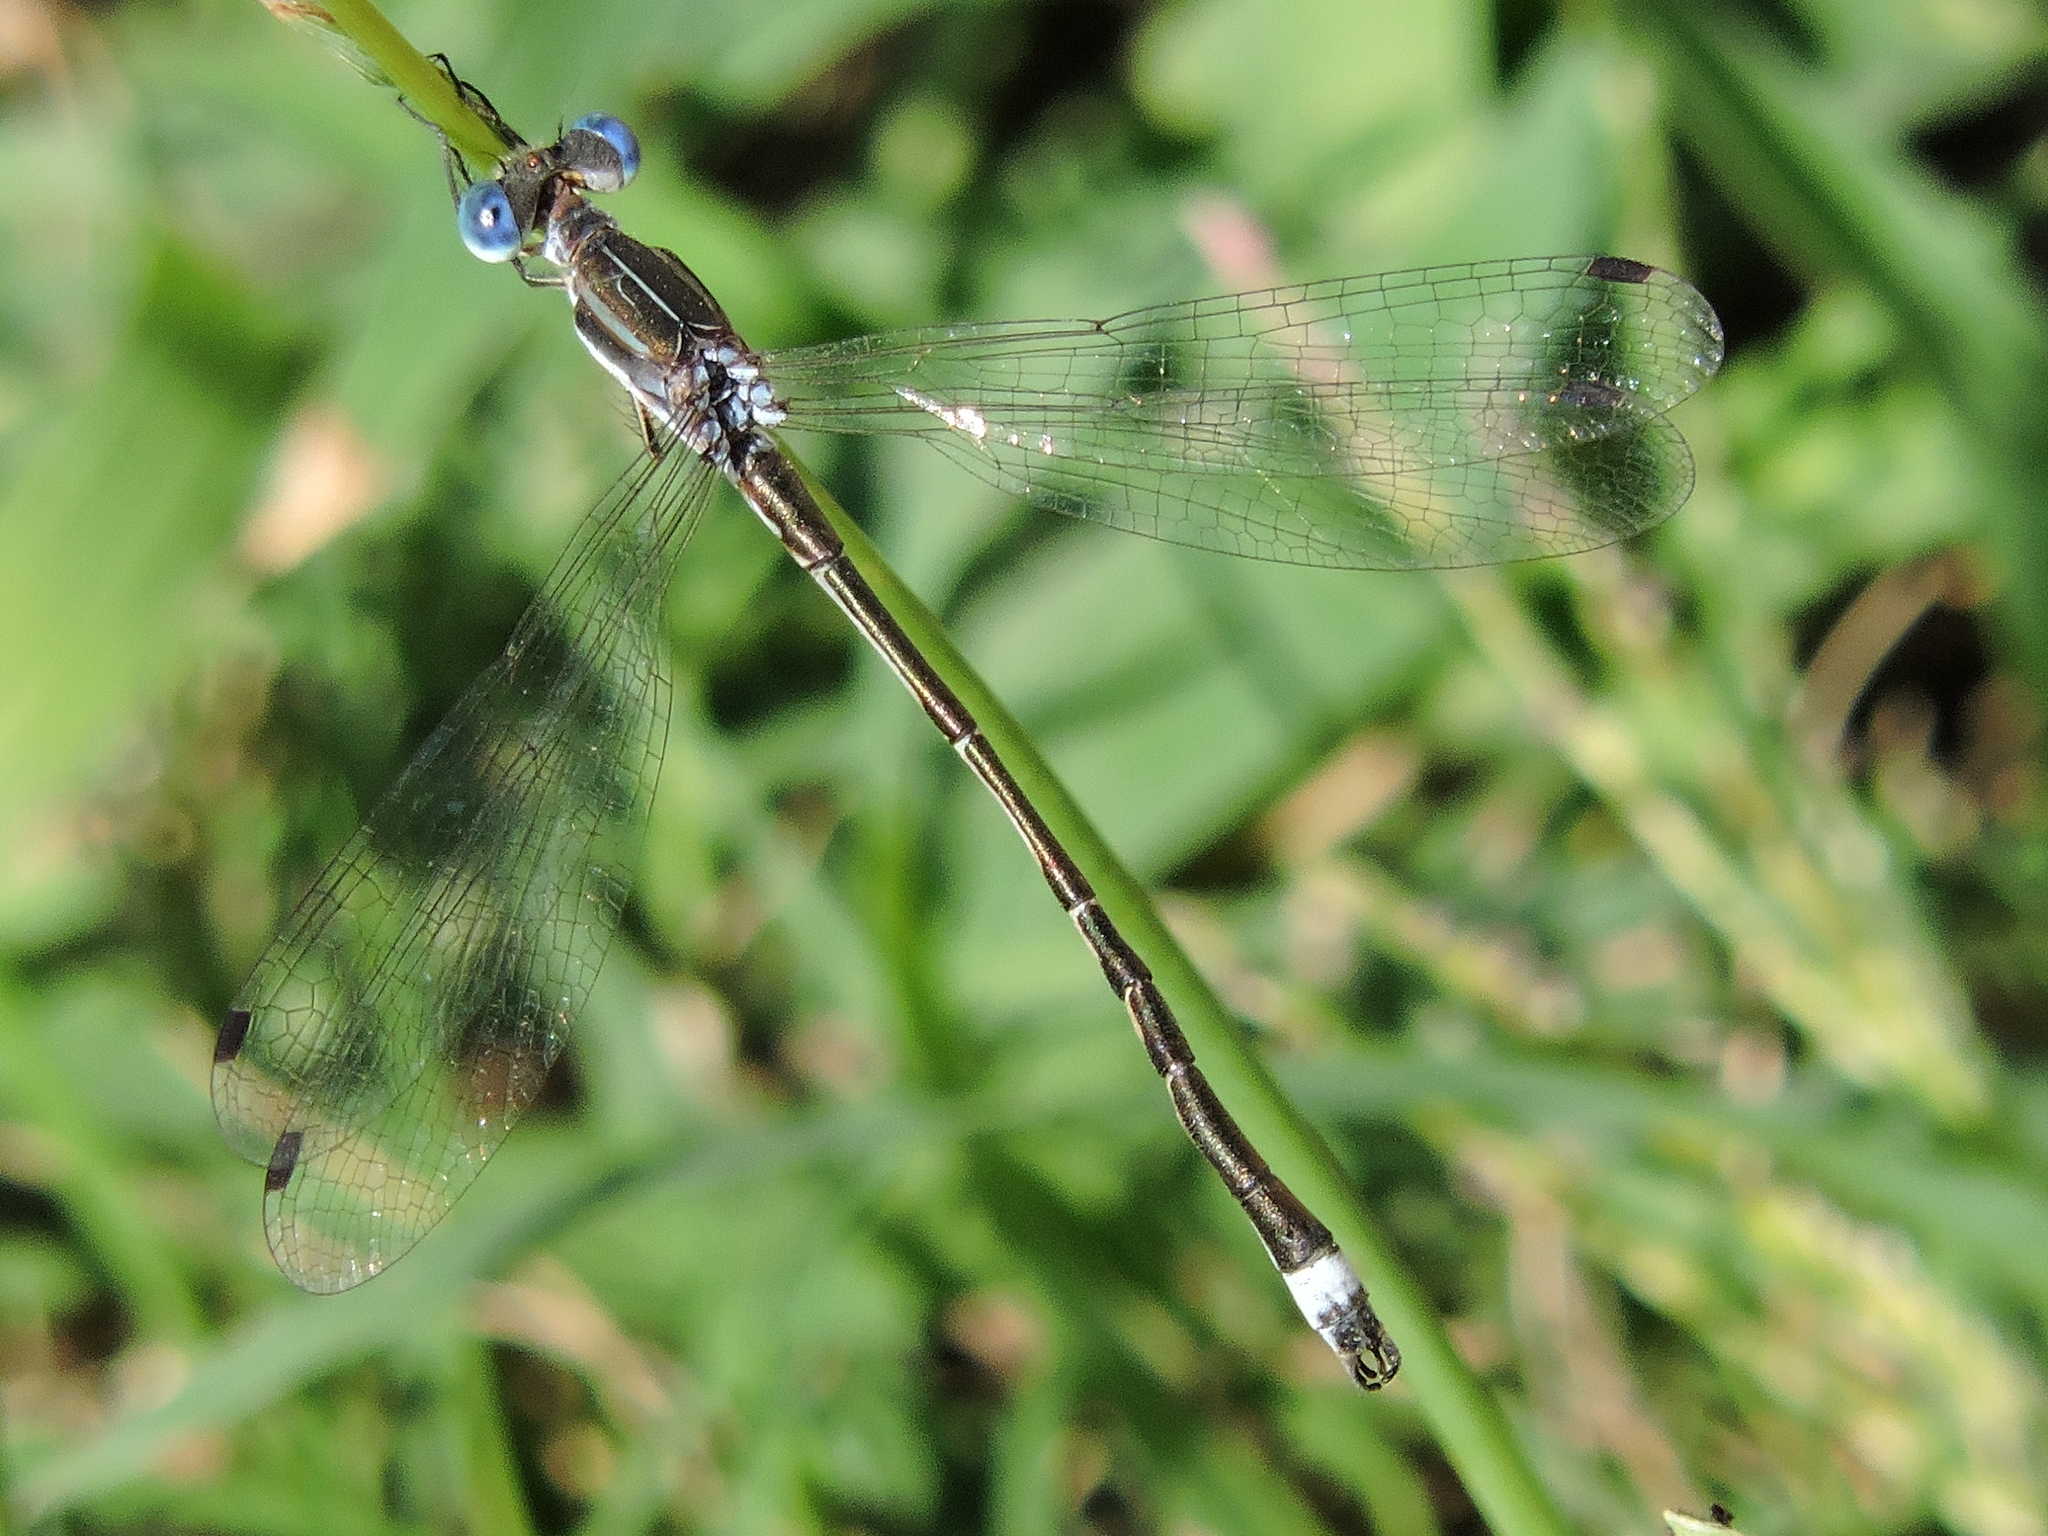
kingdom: Animalia
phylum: Arthropoda
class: Insecta
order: Odonata
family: Lestidae
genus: Lestes
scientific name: Lestes australis
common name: Southern spreadwing
